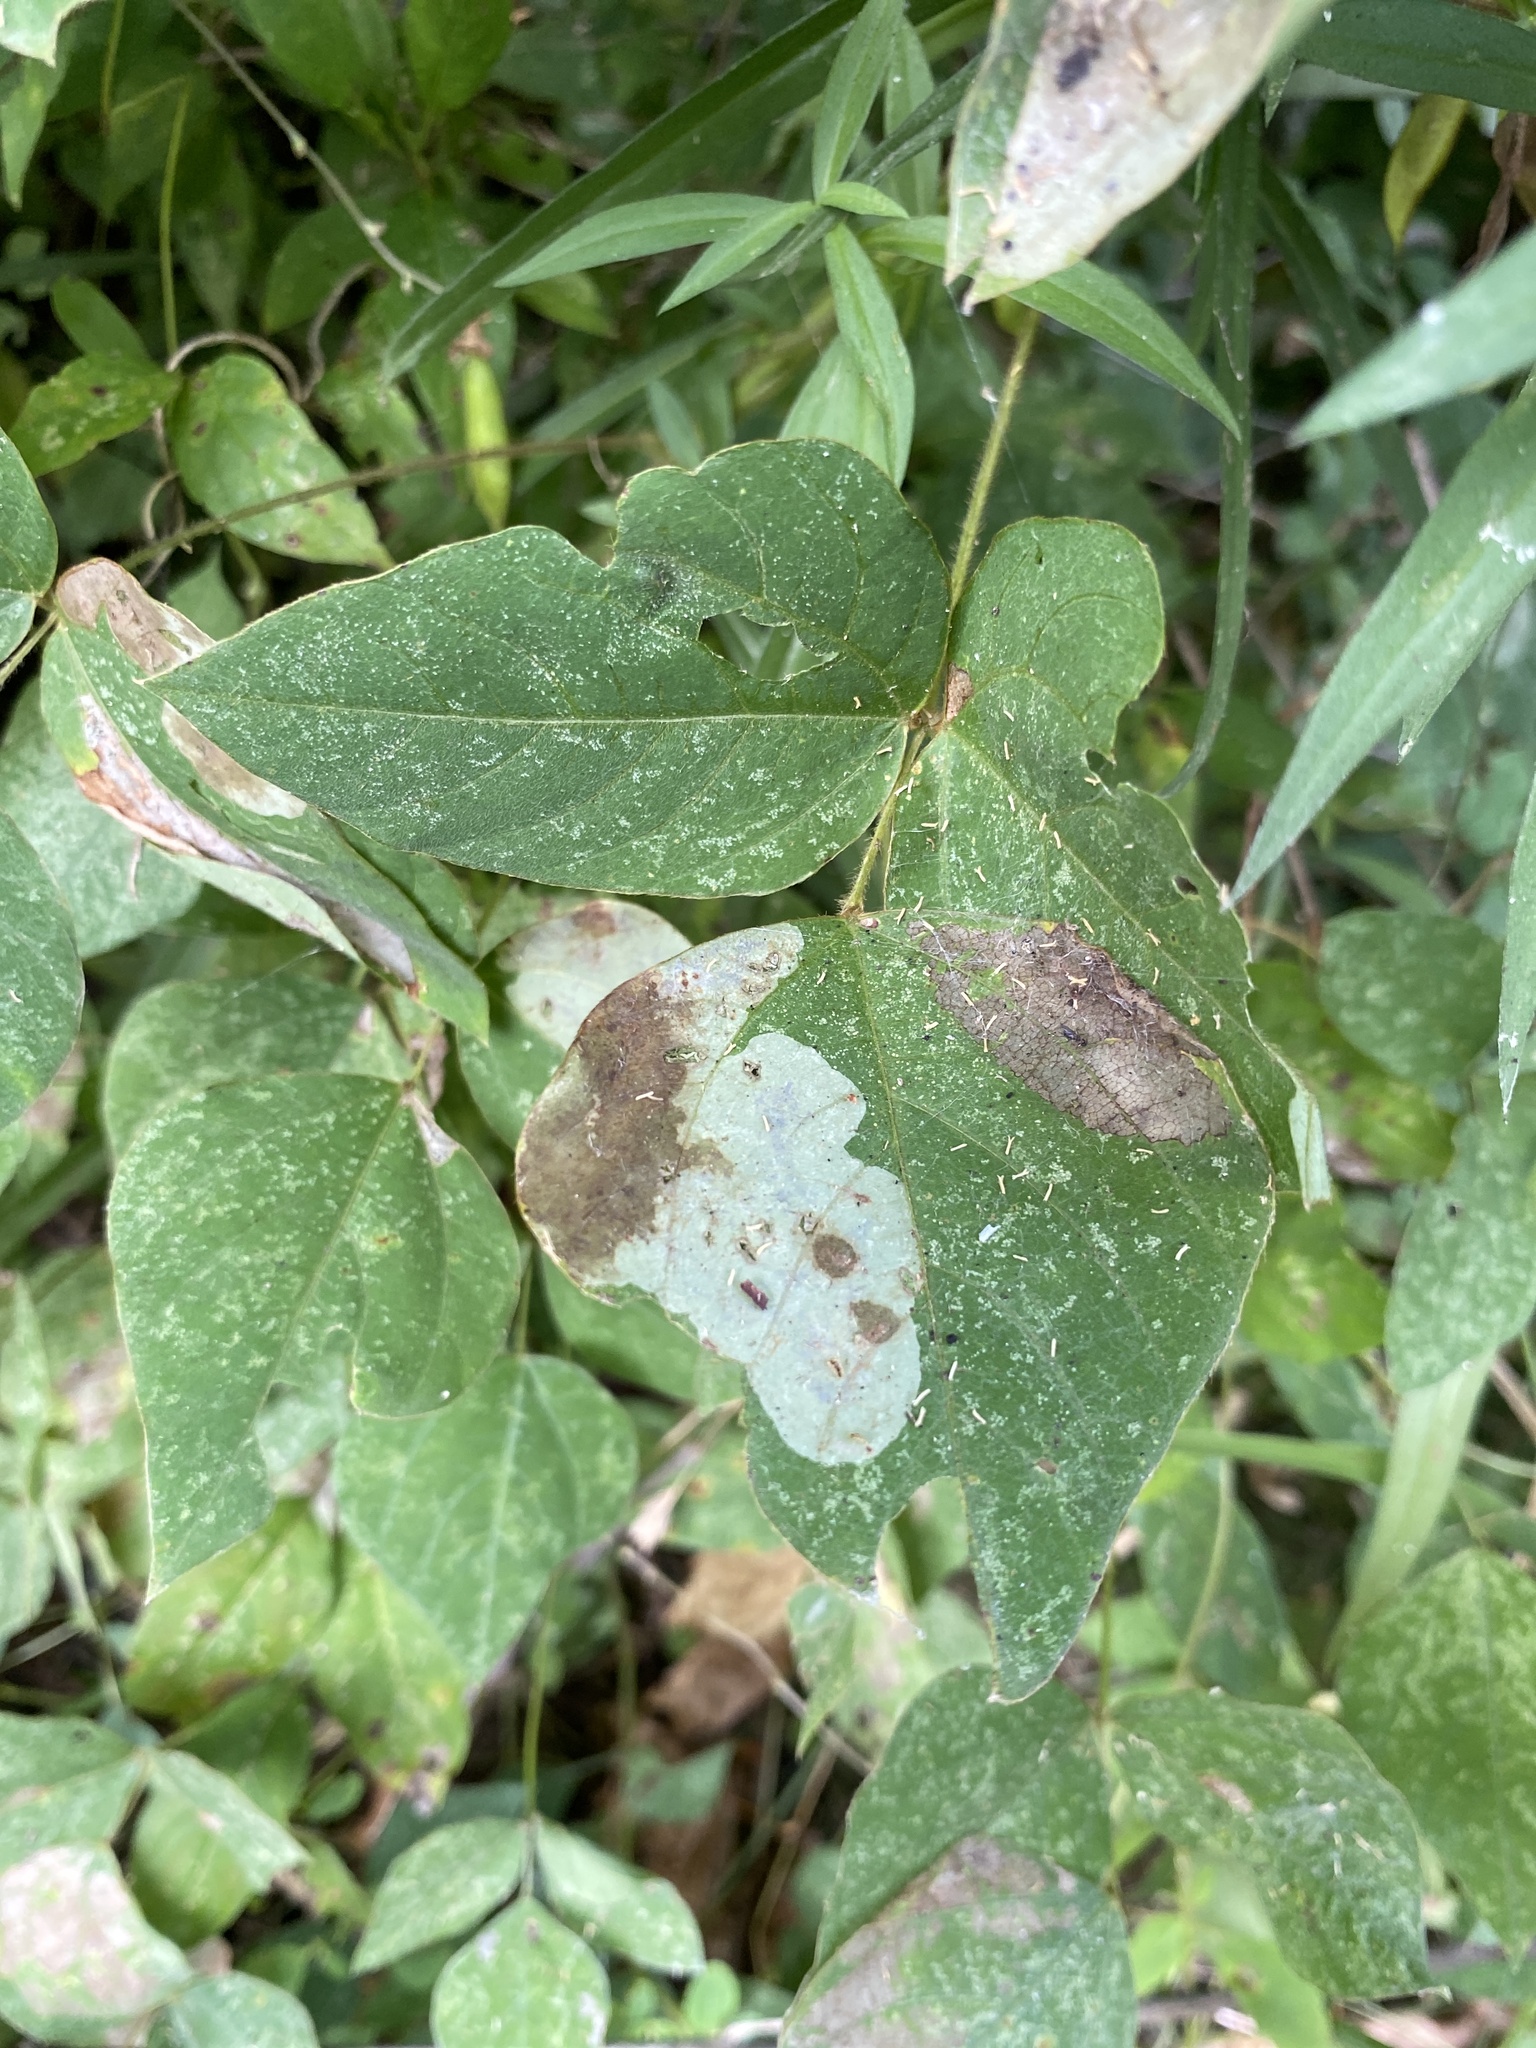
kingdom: Animalia
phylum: Arthropoda
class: Insecta
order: Lepidoptera
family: Gracillariidae
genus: Leucanthiza
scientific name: Leucanthiza amphicarpeaefoliella
